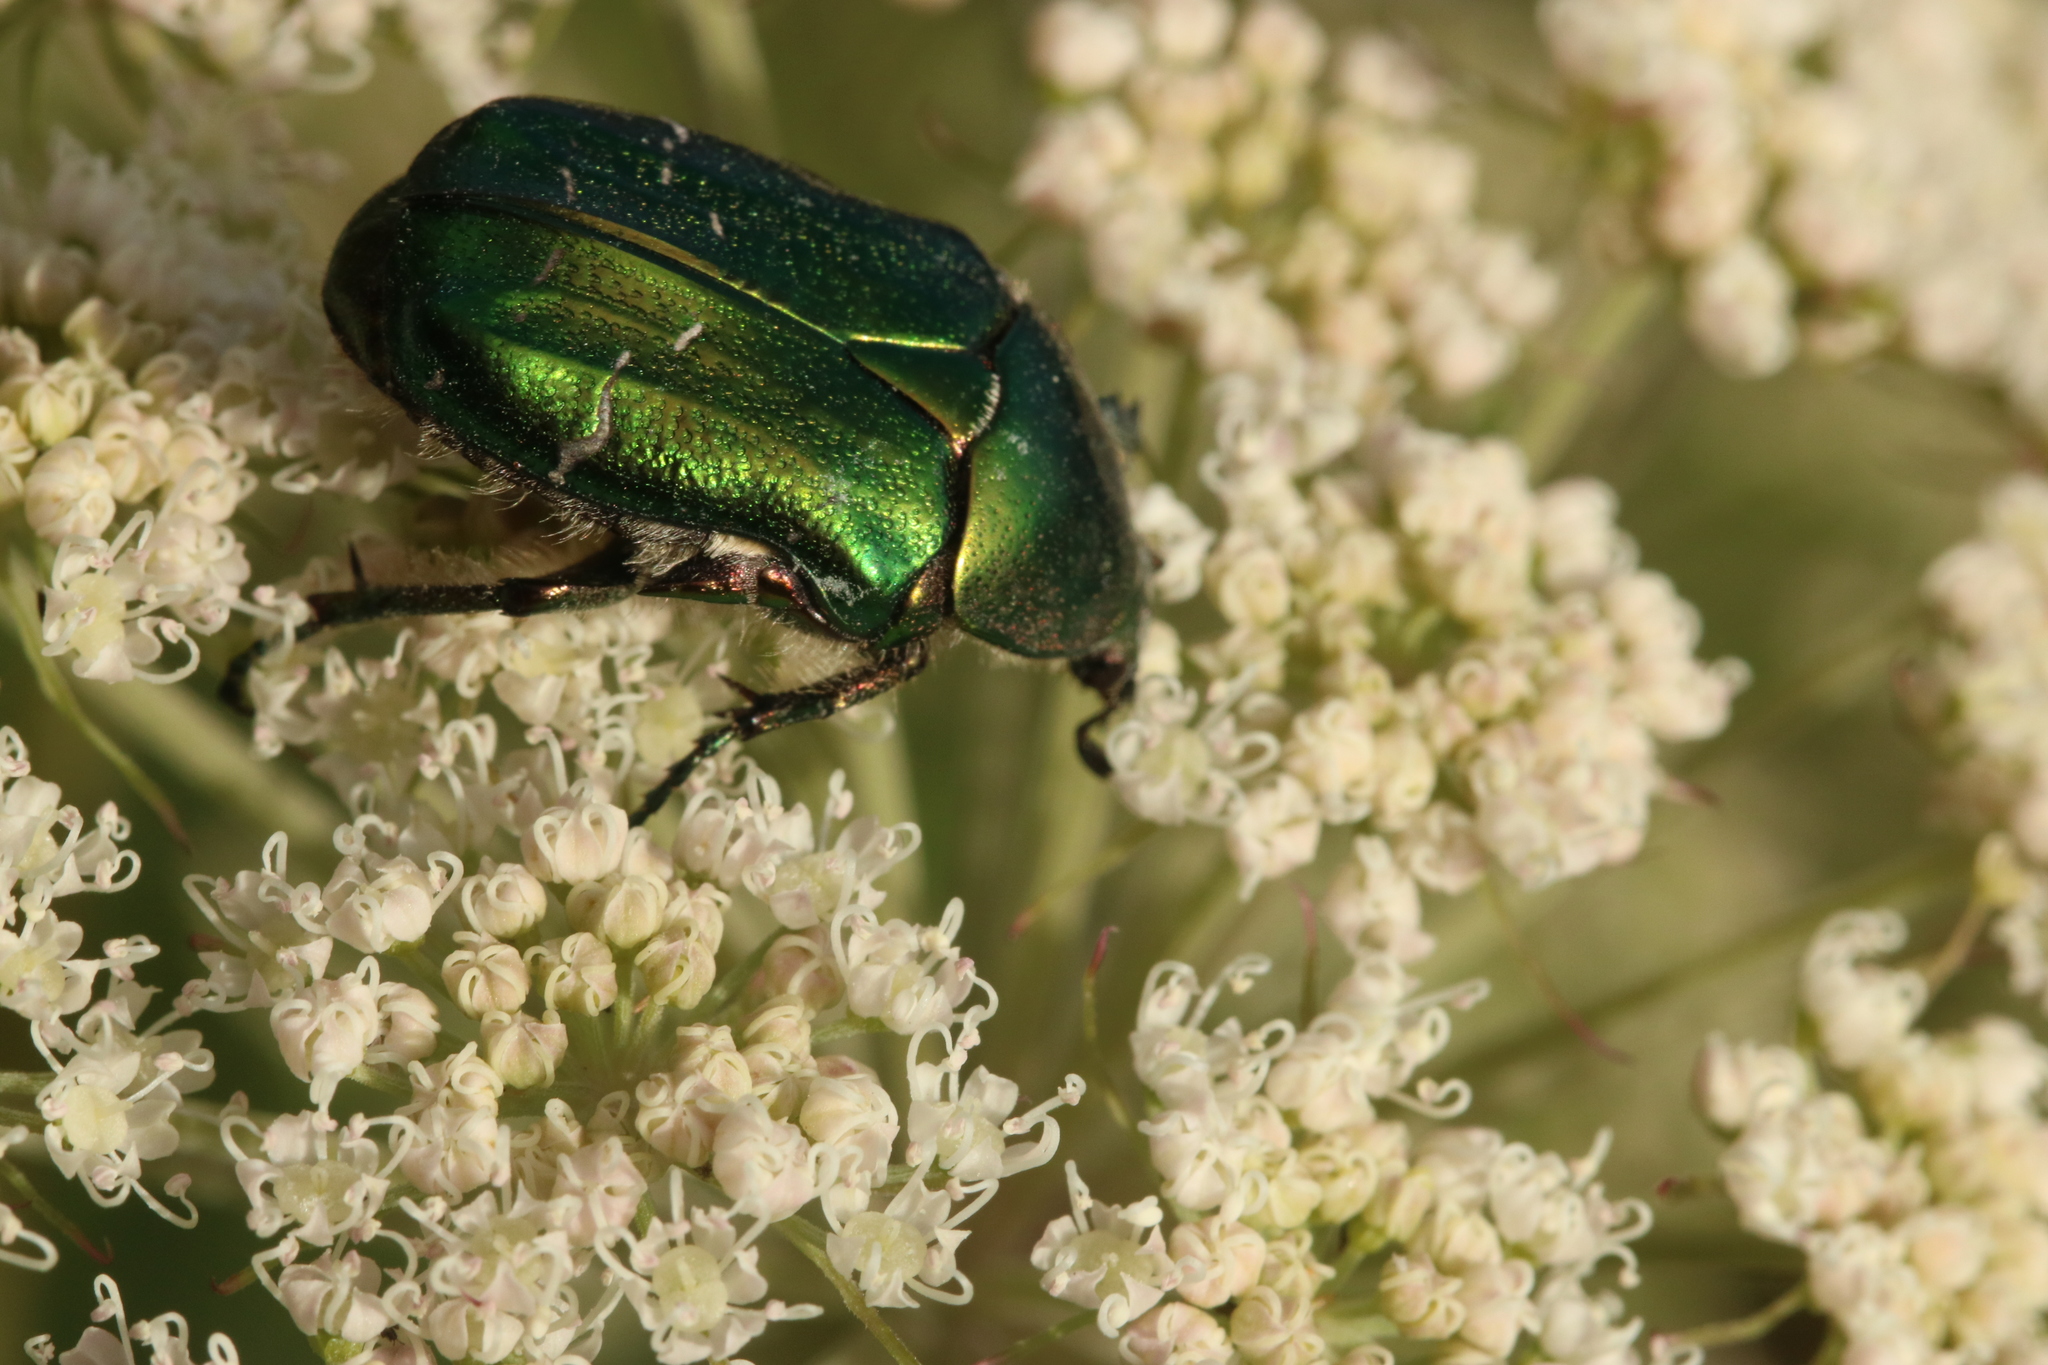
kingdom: Animalia
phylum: Arthropoda
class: Insecta
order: Coleoptera
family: Scarabaeidae
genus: Cetonia
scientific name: Cetonia aurata
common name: Rose chafer
